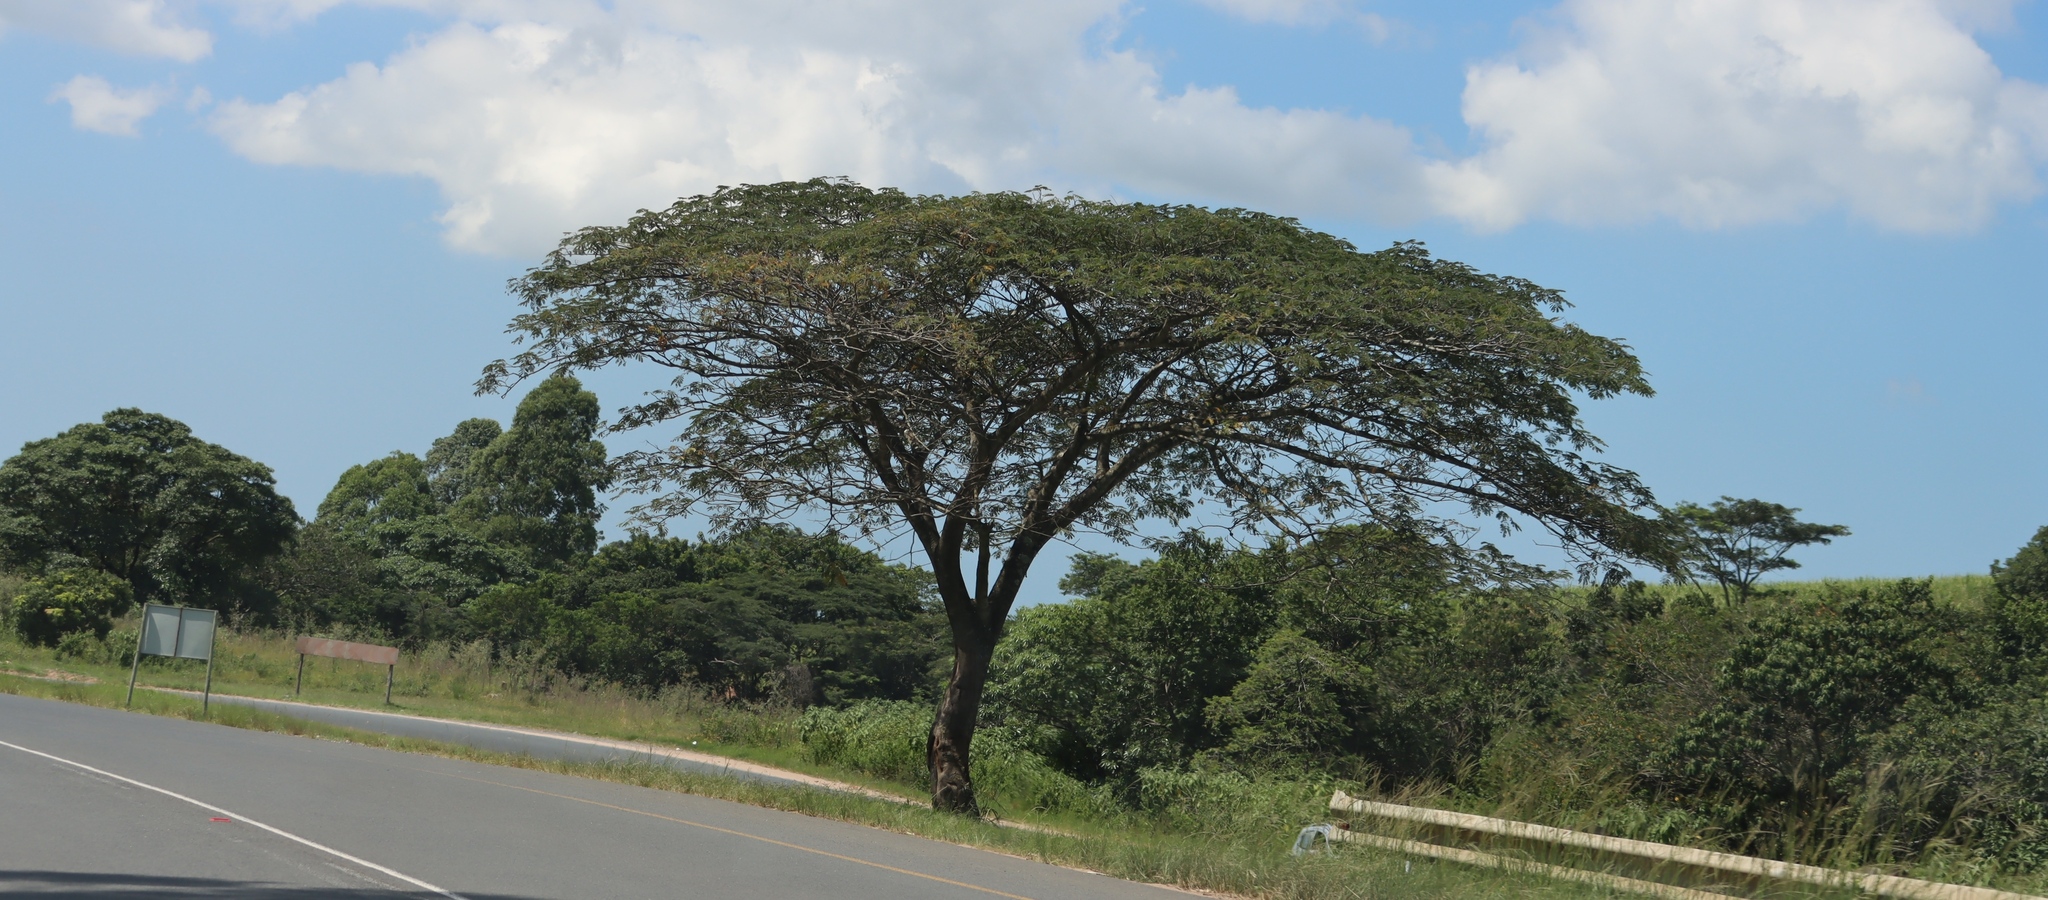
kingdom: Plantae
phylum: Tracheophyta
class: Magnoliopsida
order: Fabales
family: Fabaceae
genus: Albizia
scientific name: Albizia adianthifolia
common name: West african albizia
